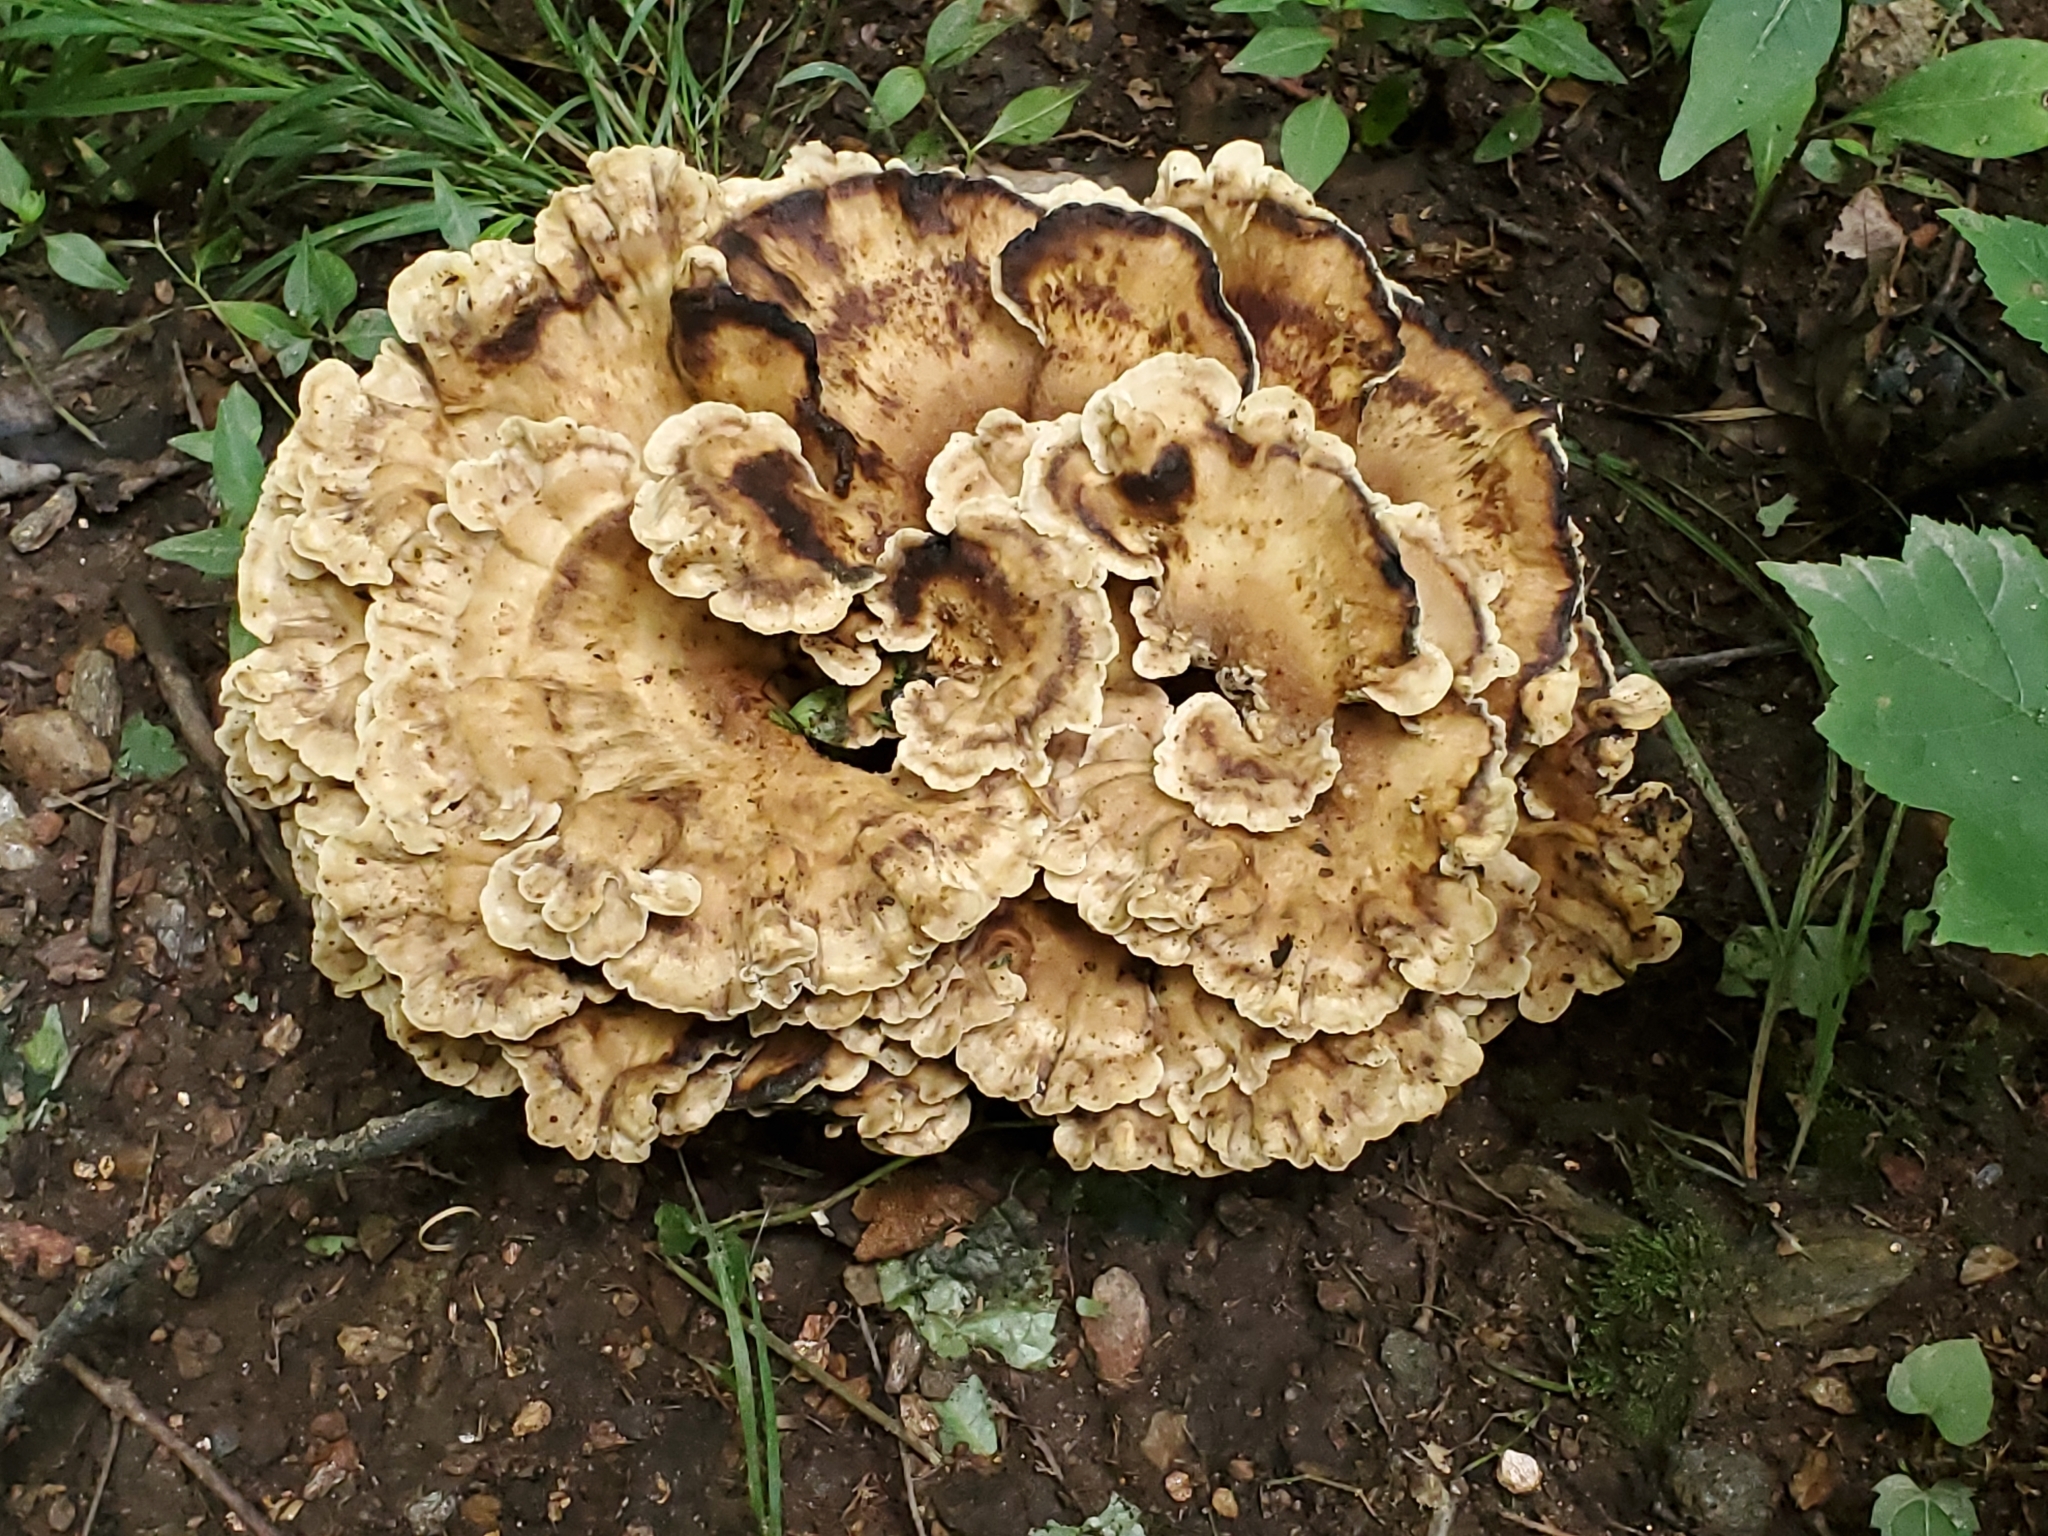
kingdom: Fungi
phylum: Basidiomycota
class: Agaricomycetes
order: Polyporales
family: Meripilaceae
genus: Meripilus
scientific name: Meripilus sumstinei
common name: Black-staining polypore
